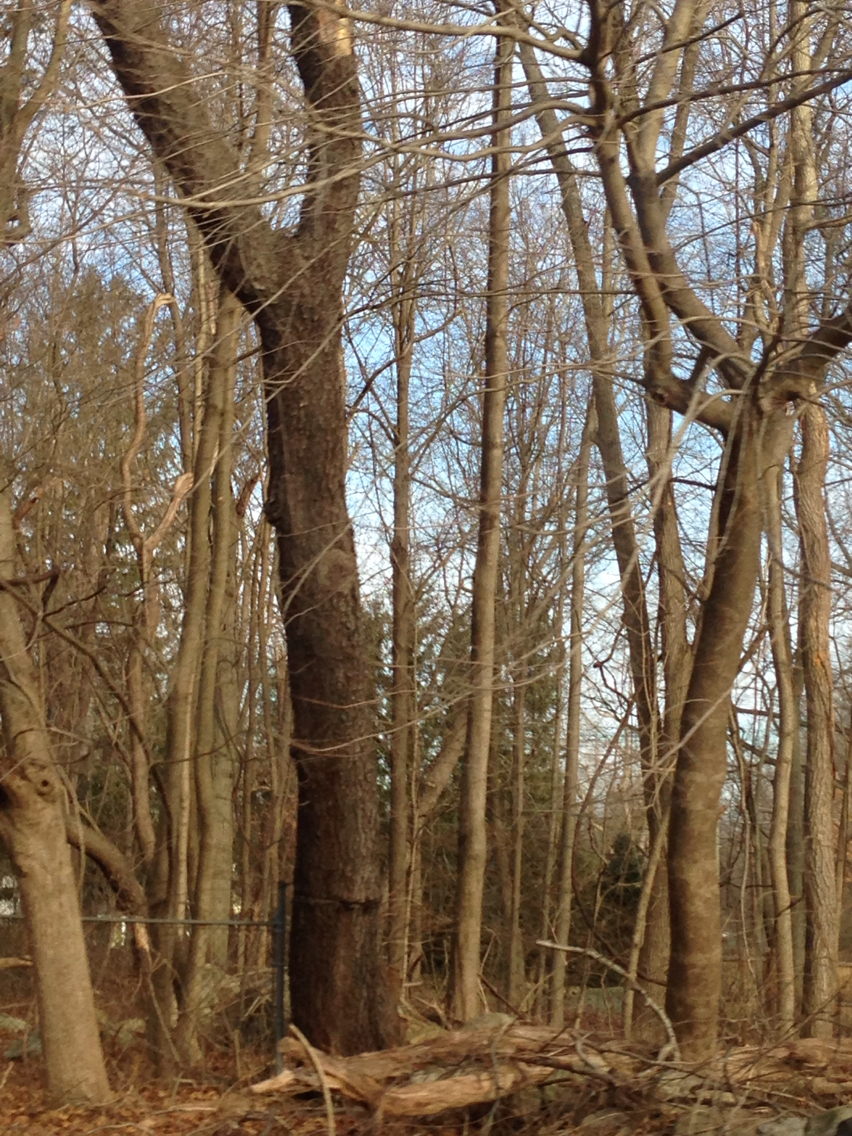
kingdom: Plantae
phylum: Tracheophyta
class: Magnoliopsida
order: Rosales
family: Rosaceae
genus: Prunus
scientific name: Prunus serotina
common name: Black cherry
